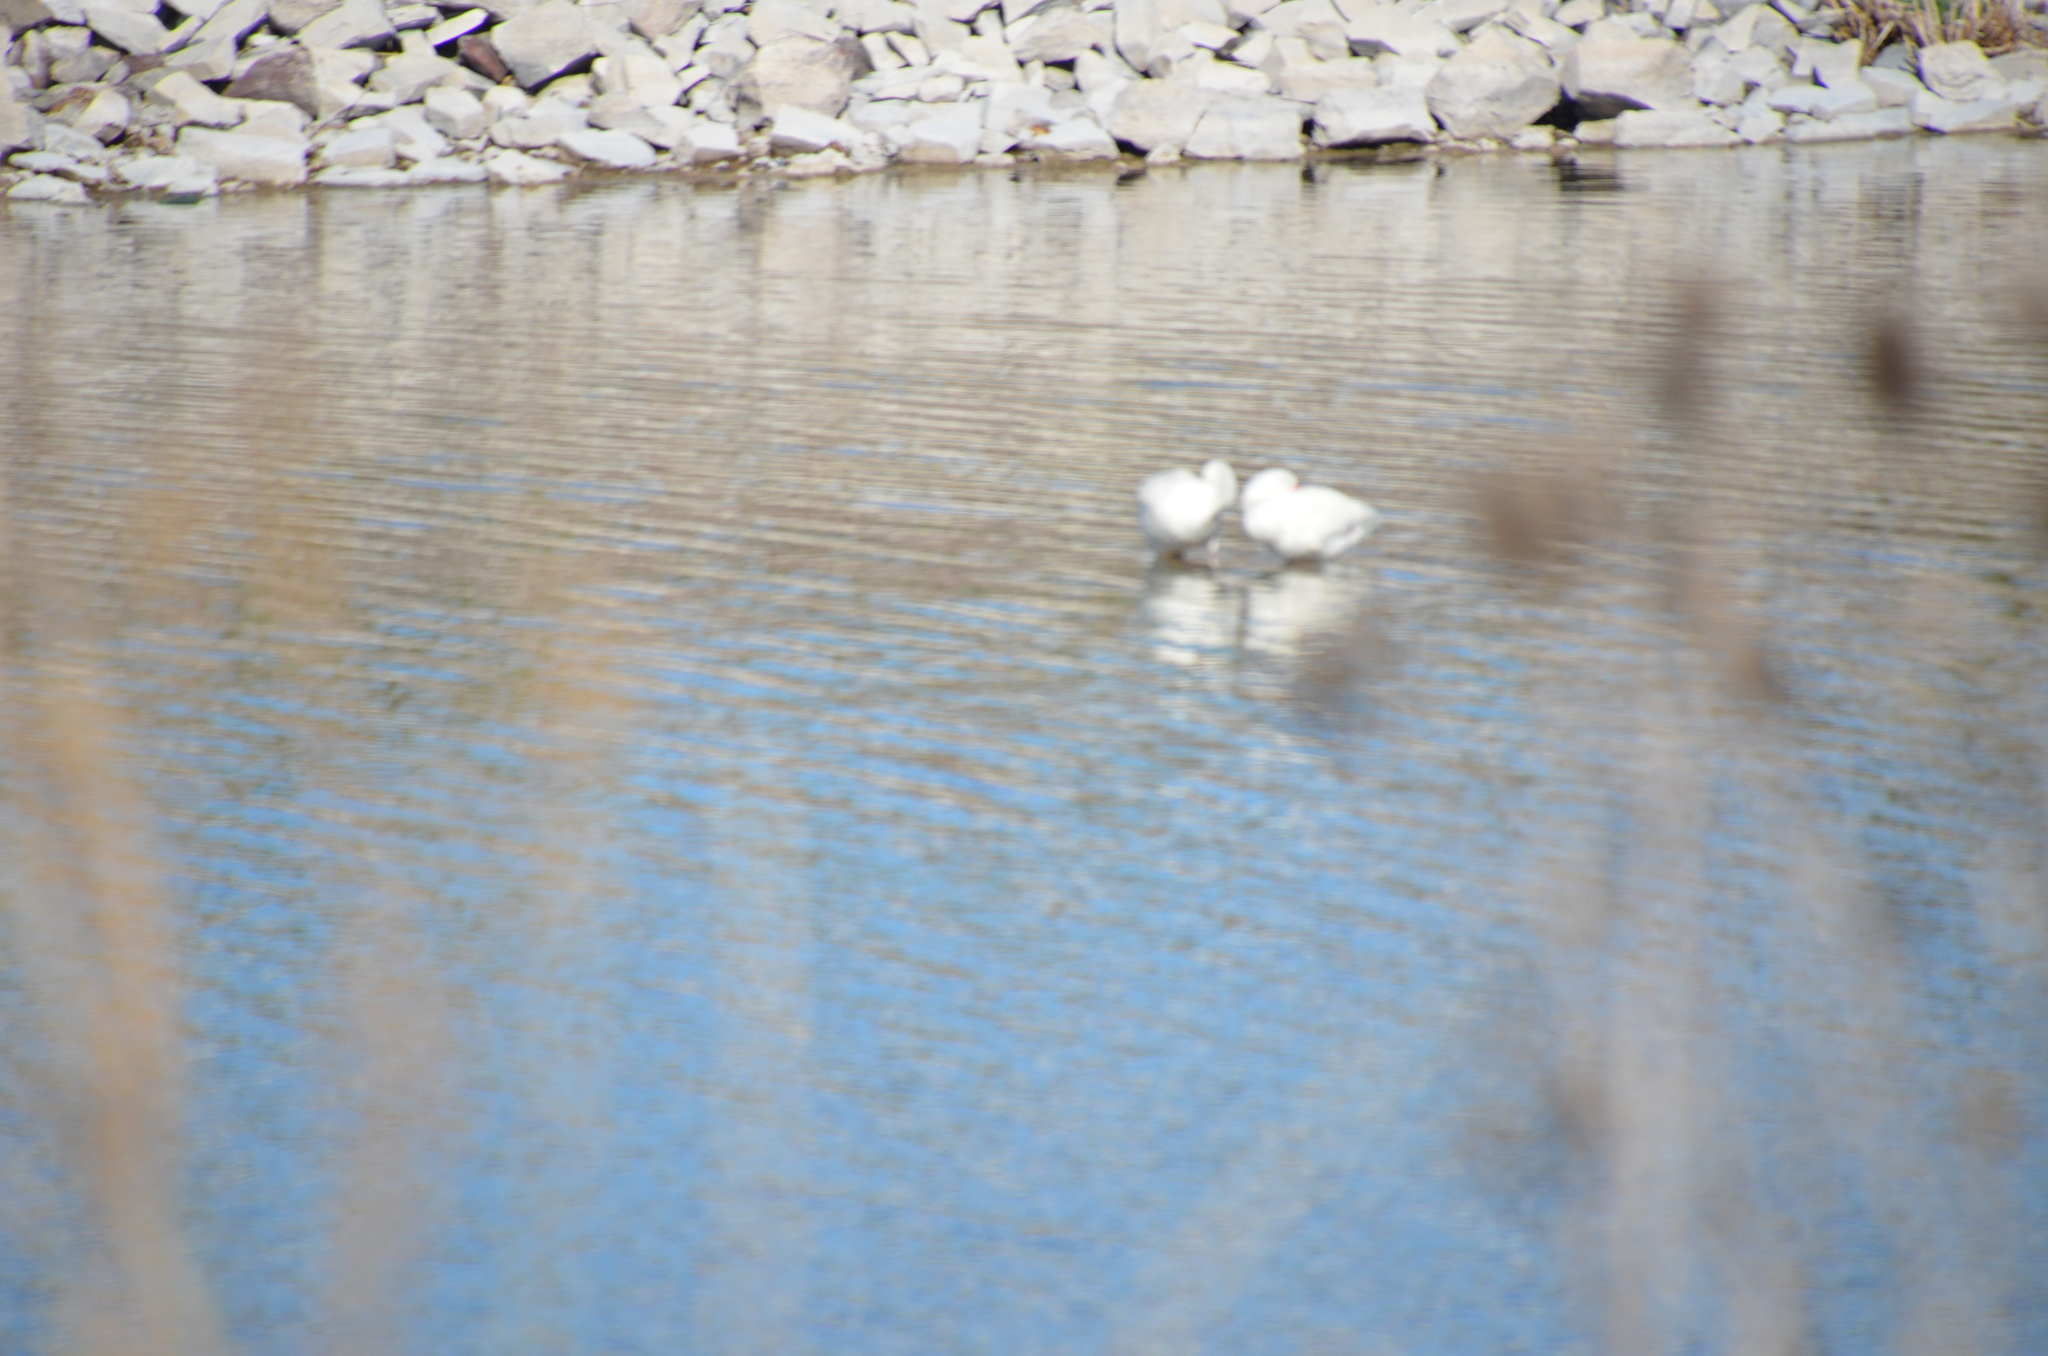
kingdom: Animalia
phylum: Chordata
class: Aves
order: Anseriformes
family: Anatidae
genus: Coscoroba
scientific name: Coscoroba coscoroba
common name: Coscoroba swan
